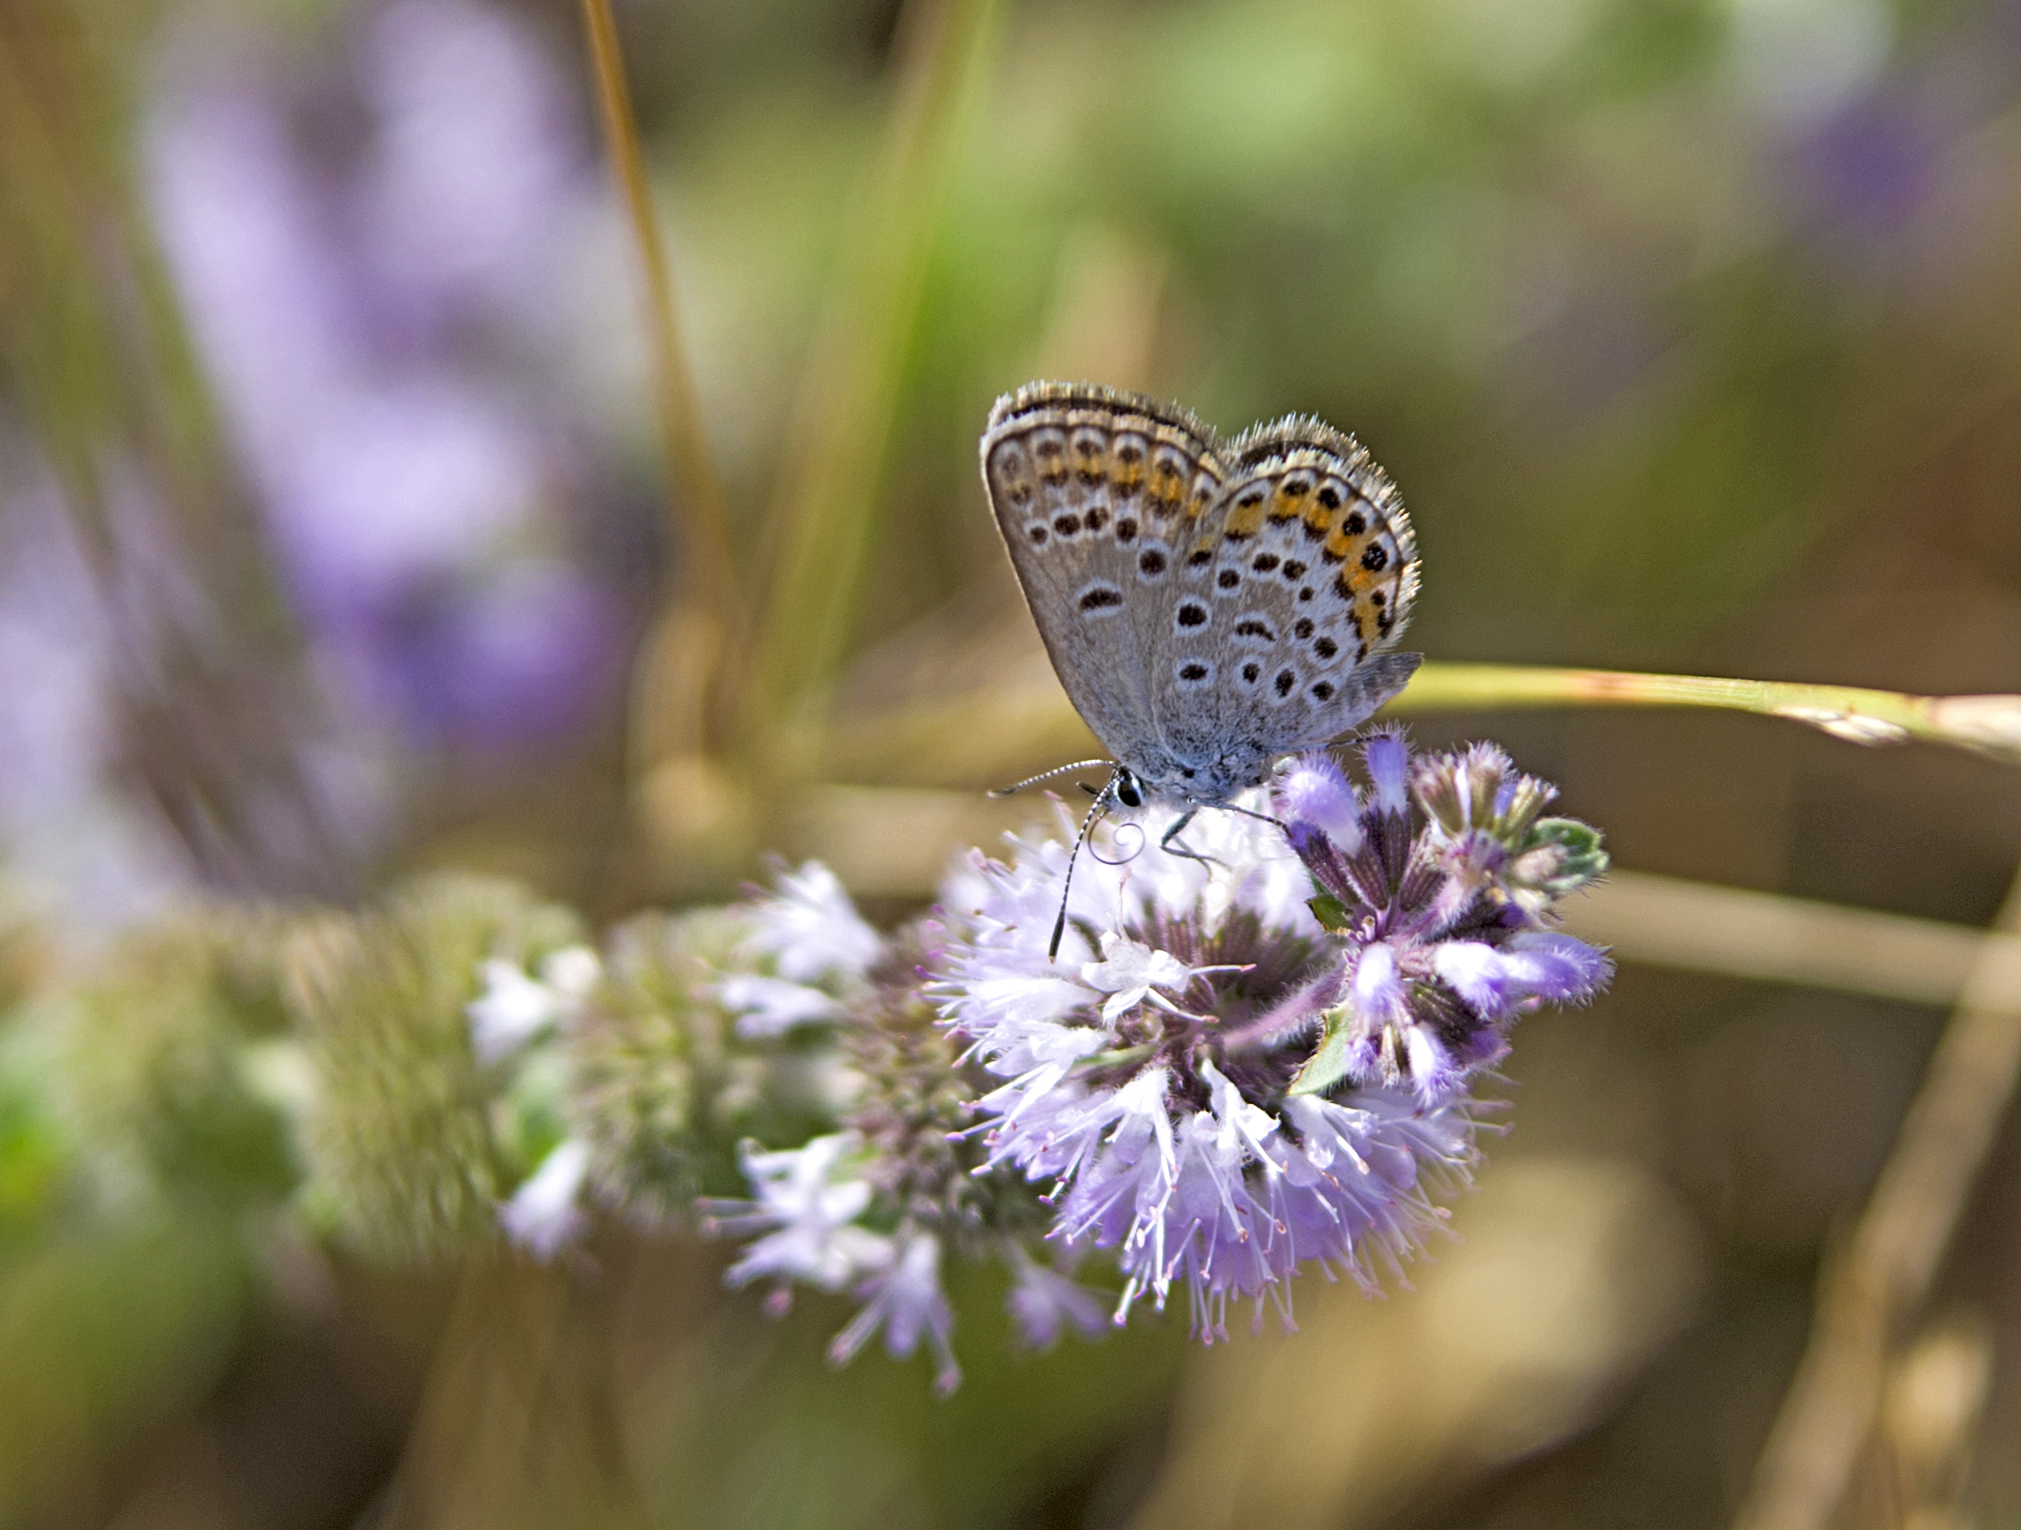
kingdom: Animalia
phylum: Arthropoda
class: Insecta
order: Lepidoptera
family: Lycaenidae
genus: Plebejus
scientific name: Plebejus argus
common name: Silver-studded blue
